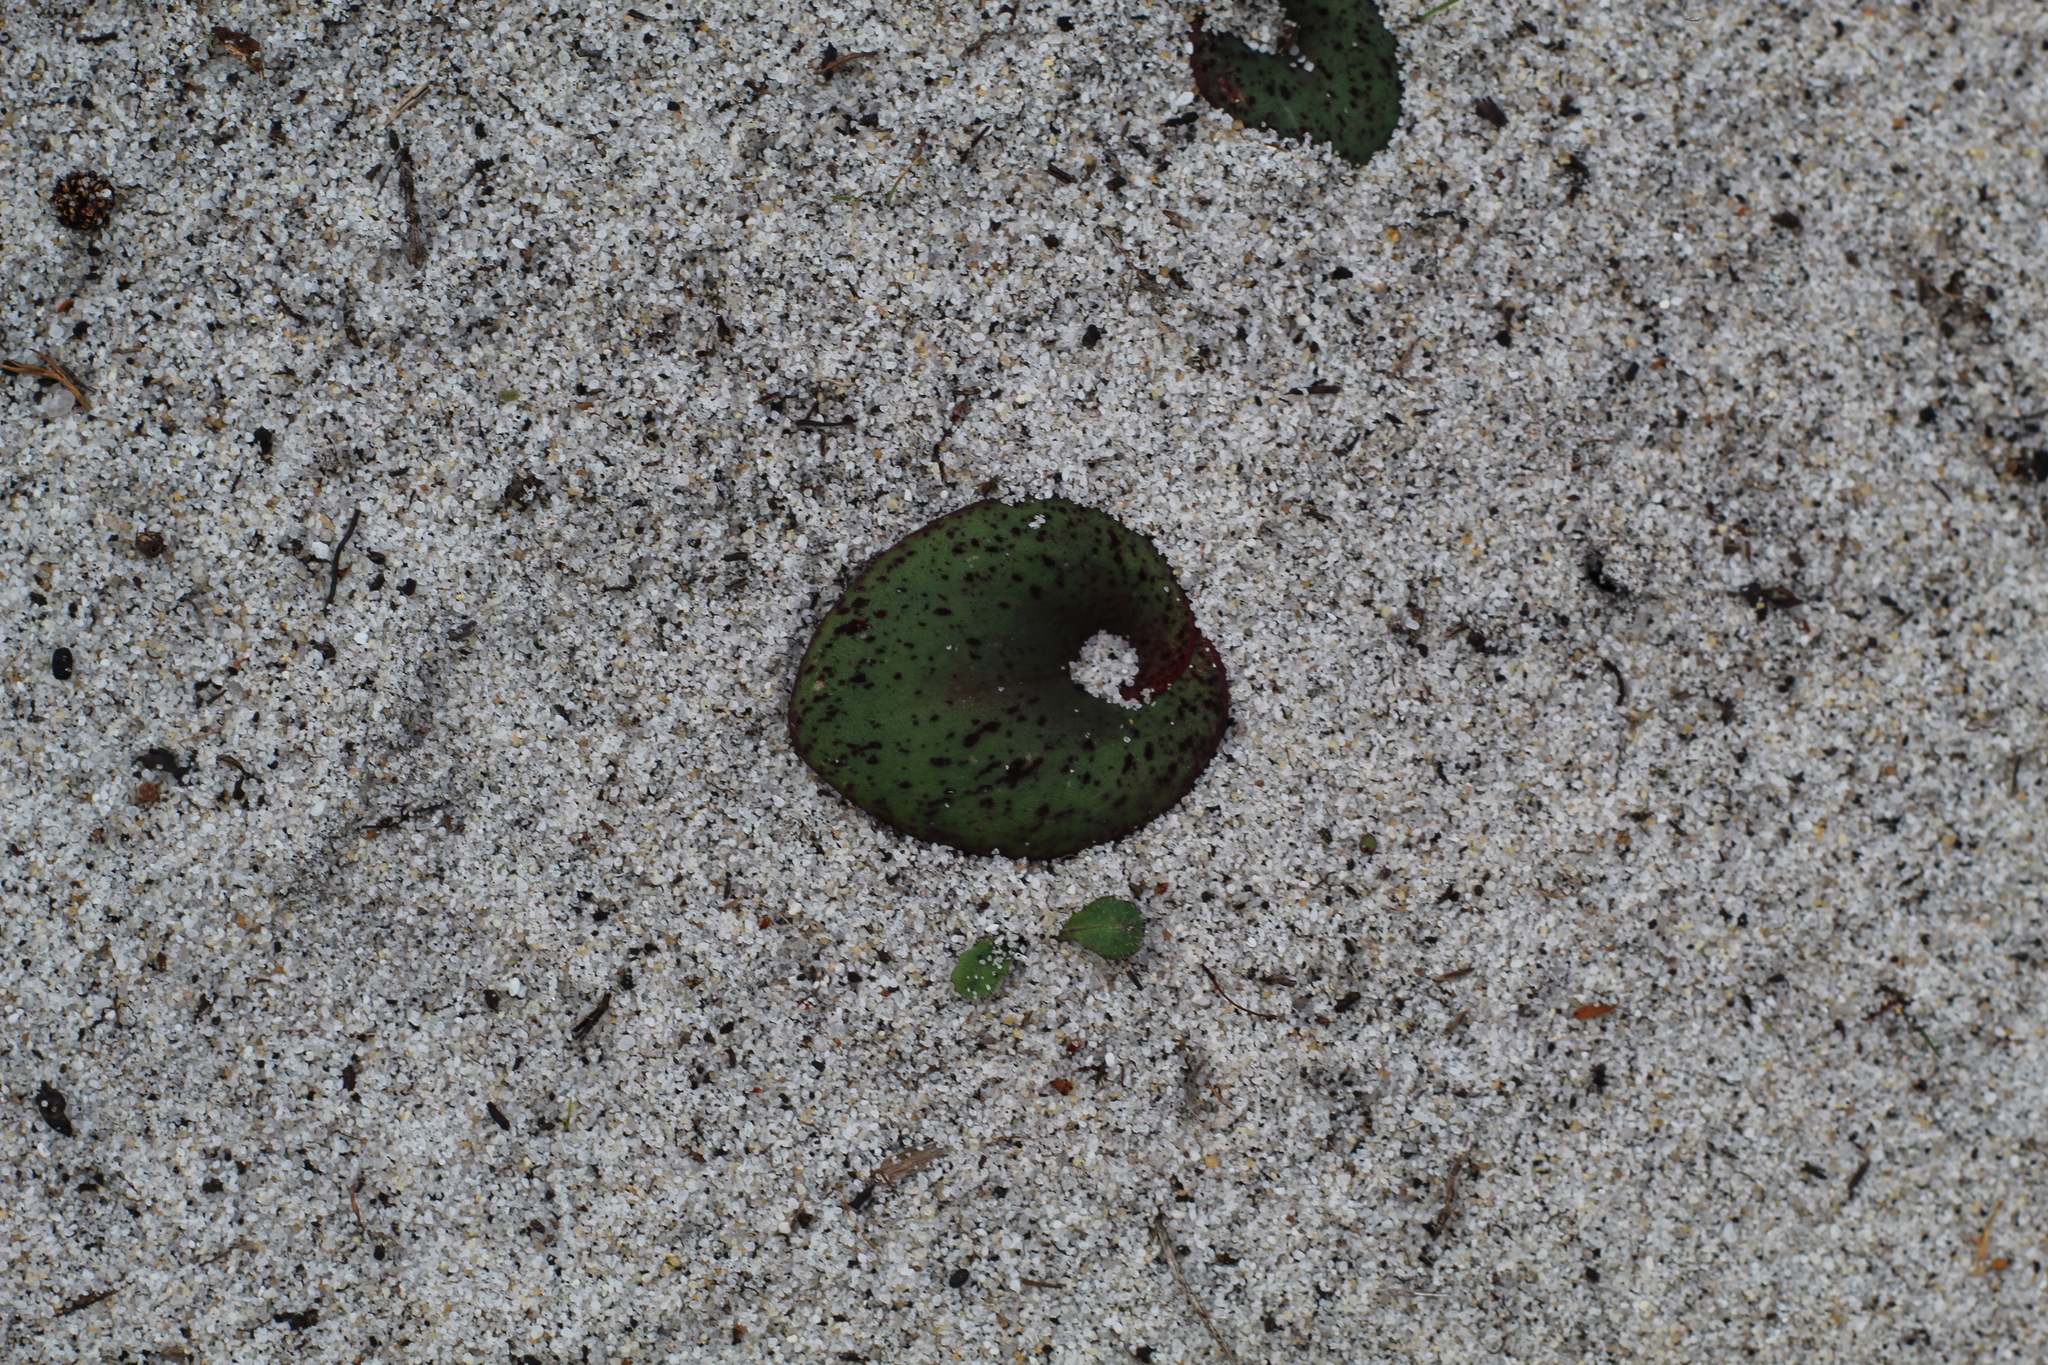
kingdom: Plantae
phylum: Tracheophyta
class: Liliopsida
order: Asparagales
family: Orchidaceae
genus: Pyrorchis
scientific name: Pyrorchis nigricans
